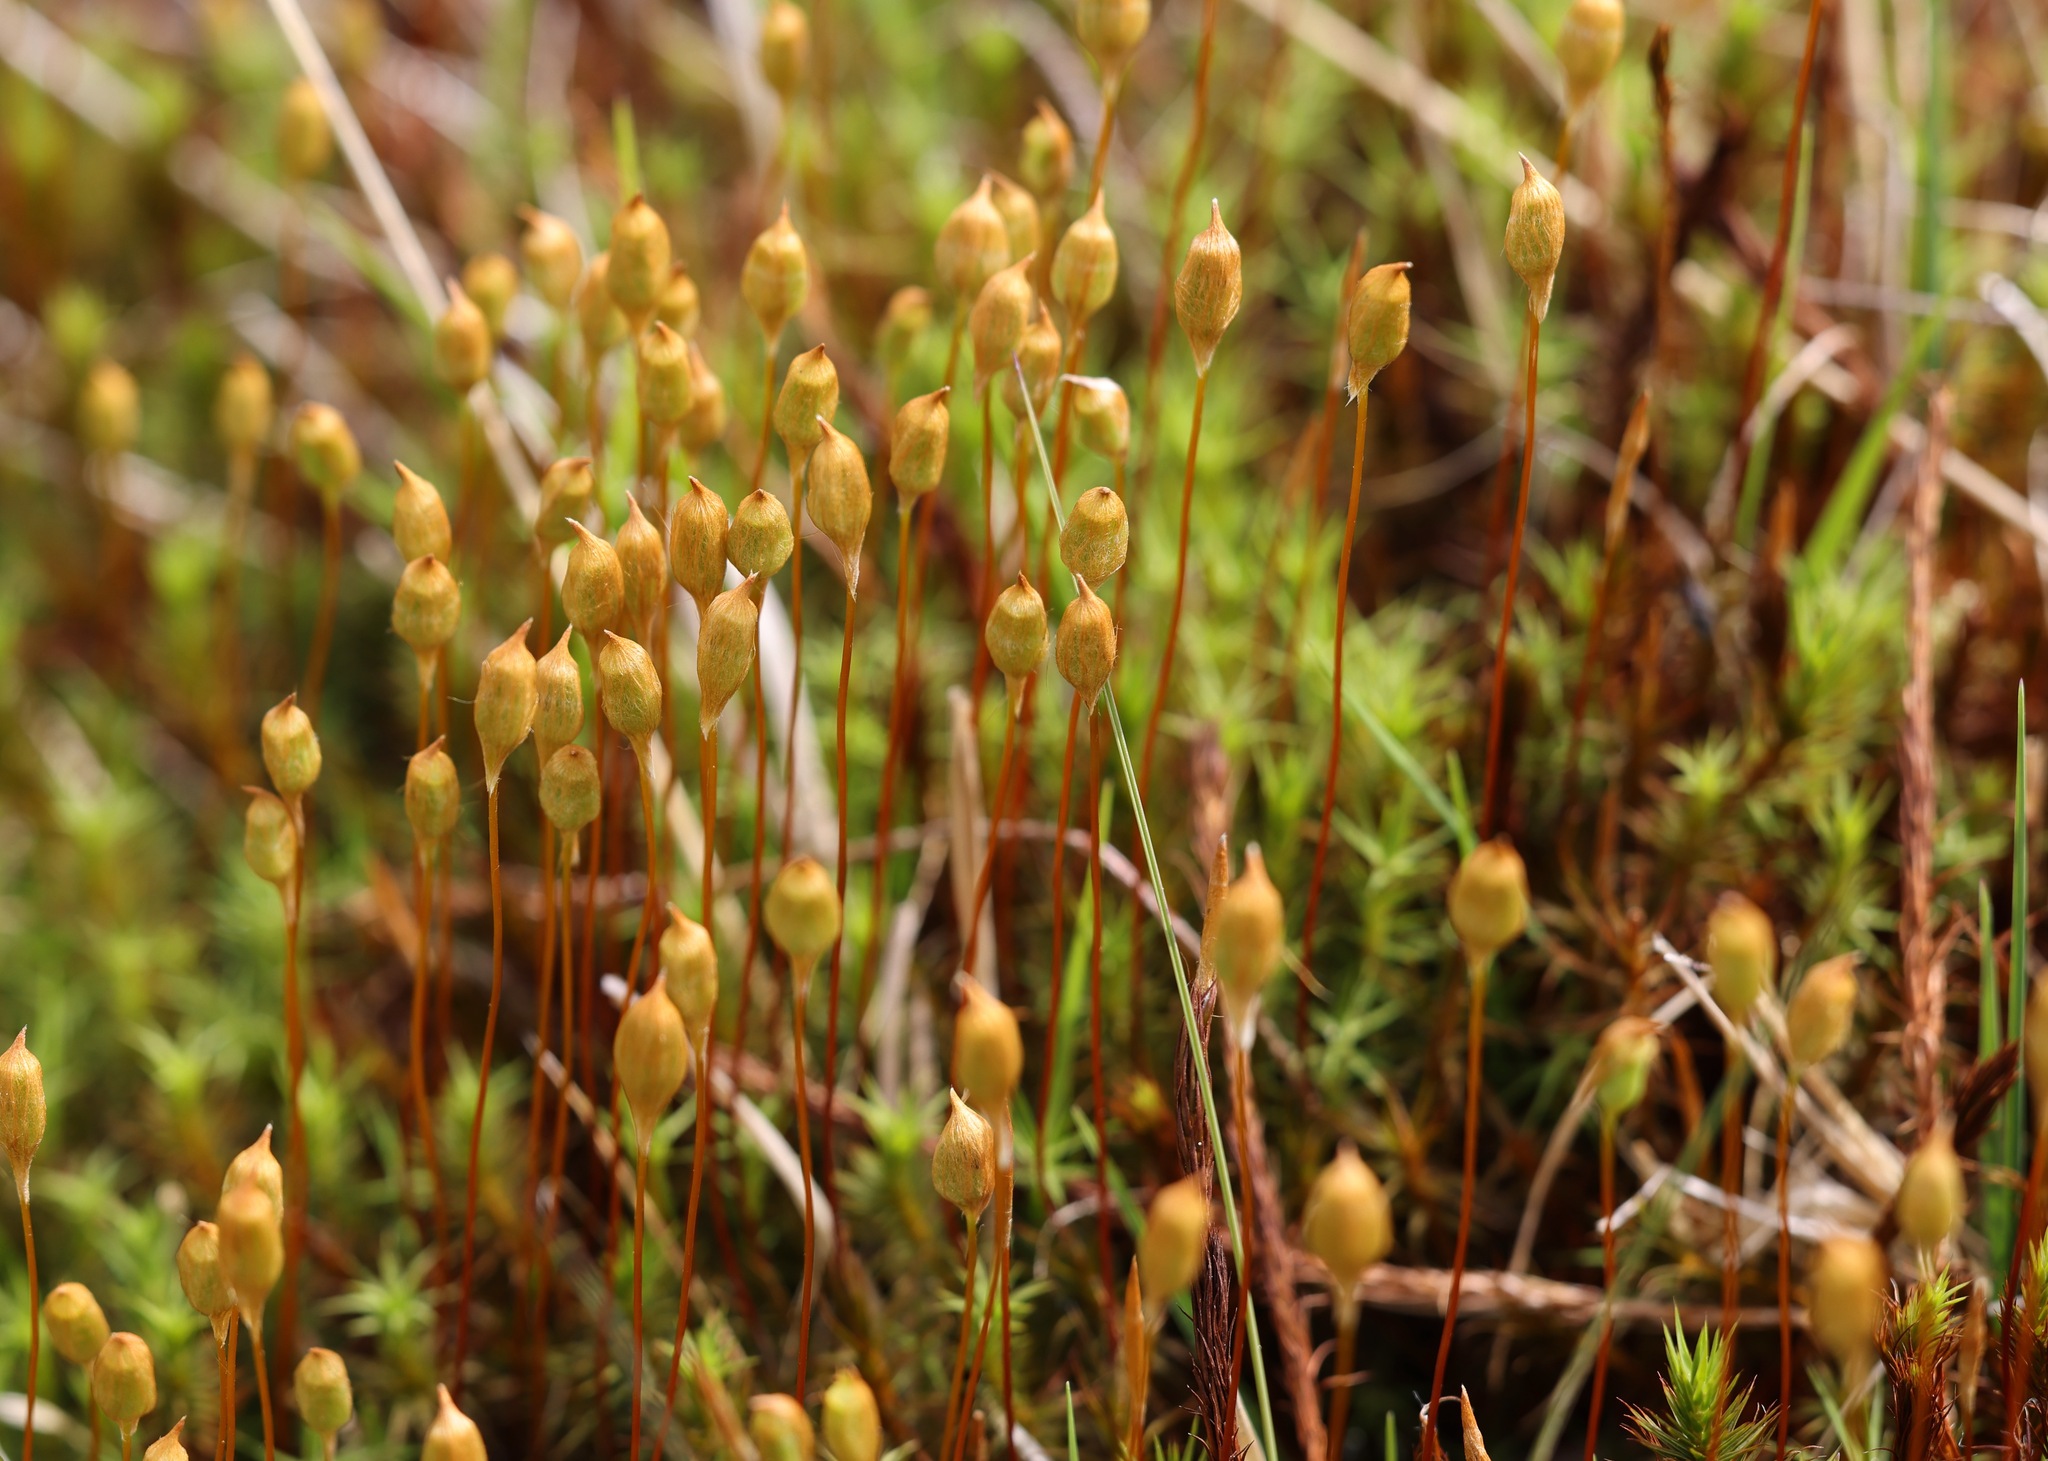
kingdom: Plantae
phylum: Bryophyta
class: Polytrichopsida
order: Polytrichales
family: Polytrichaceae
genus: Polytrichum
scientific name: Polytrichum commune
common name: Common haircap
